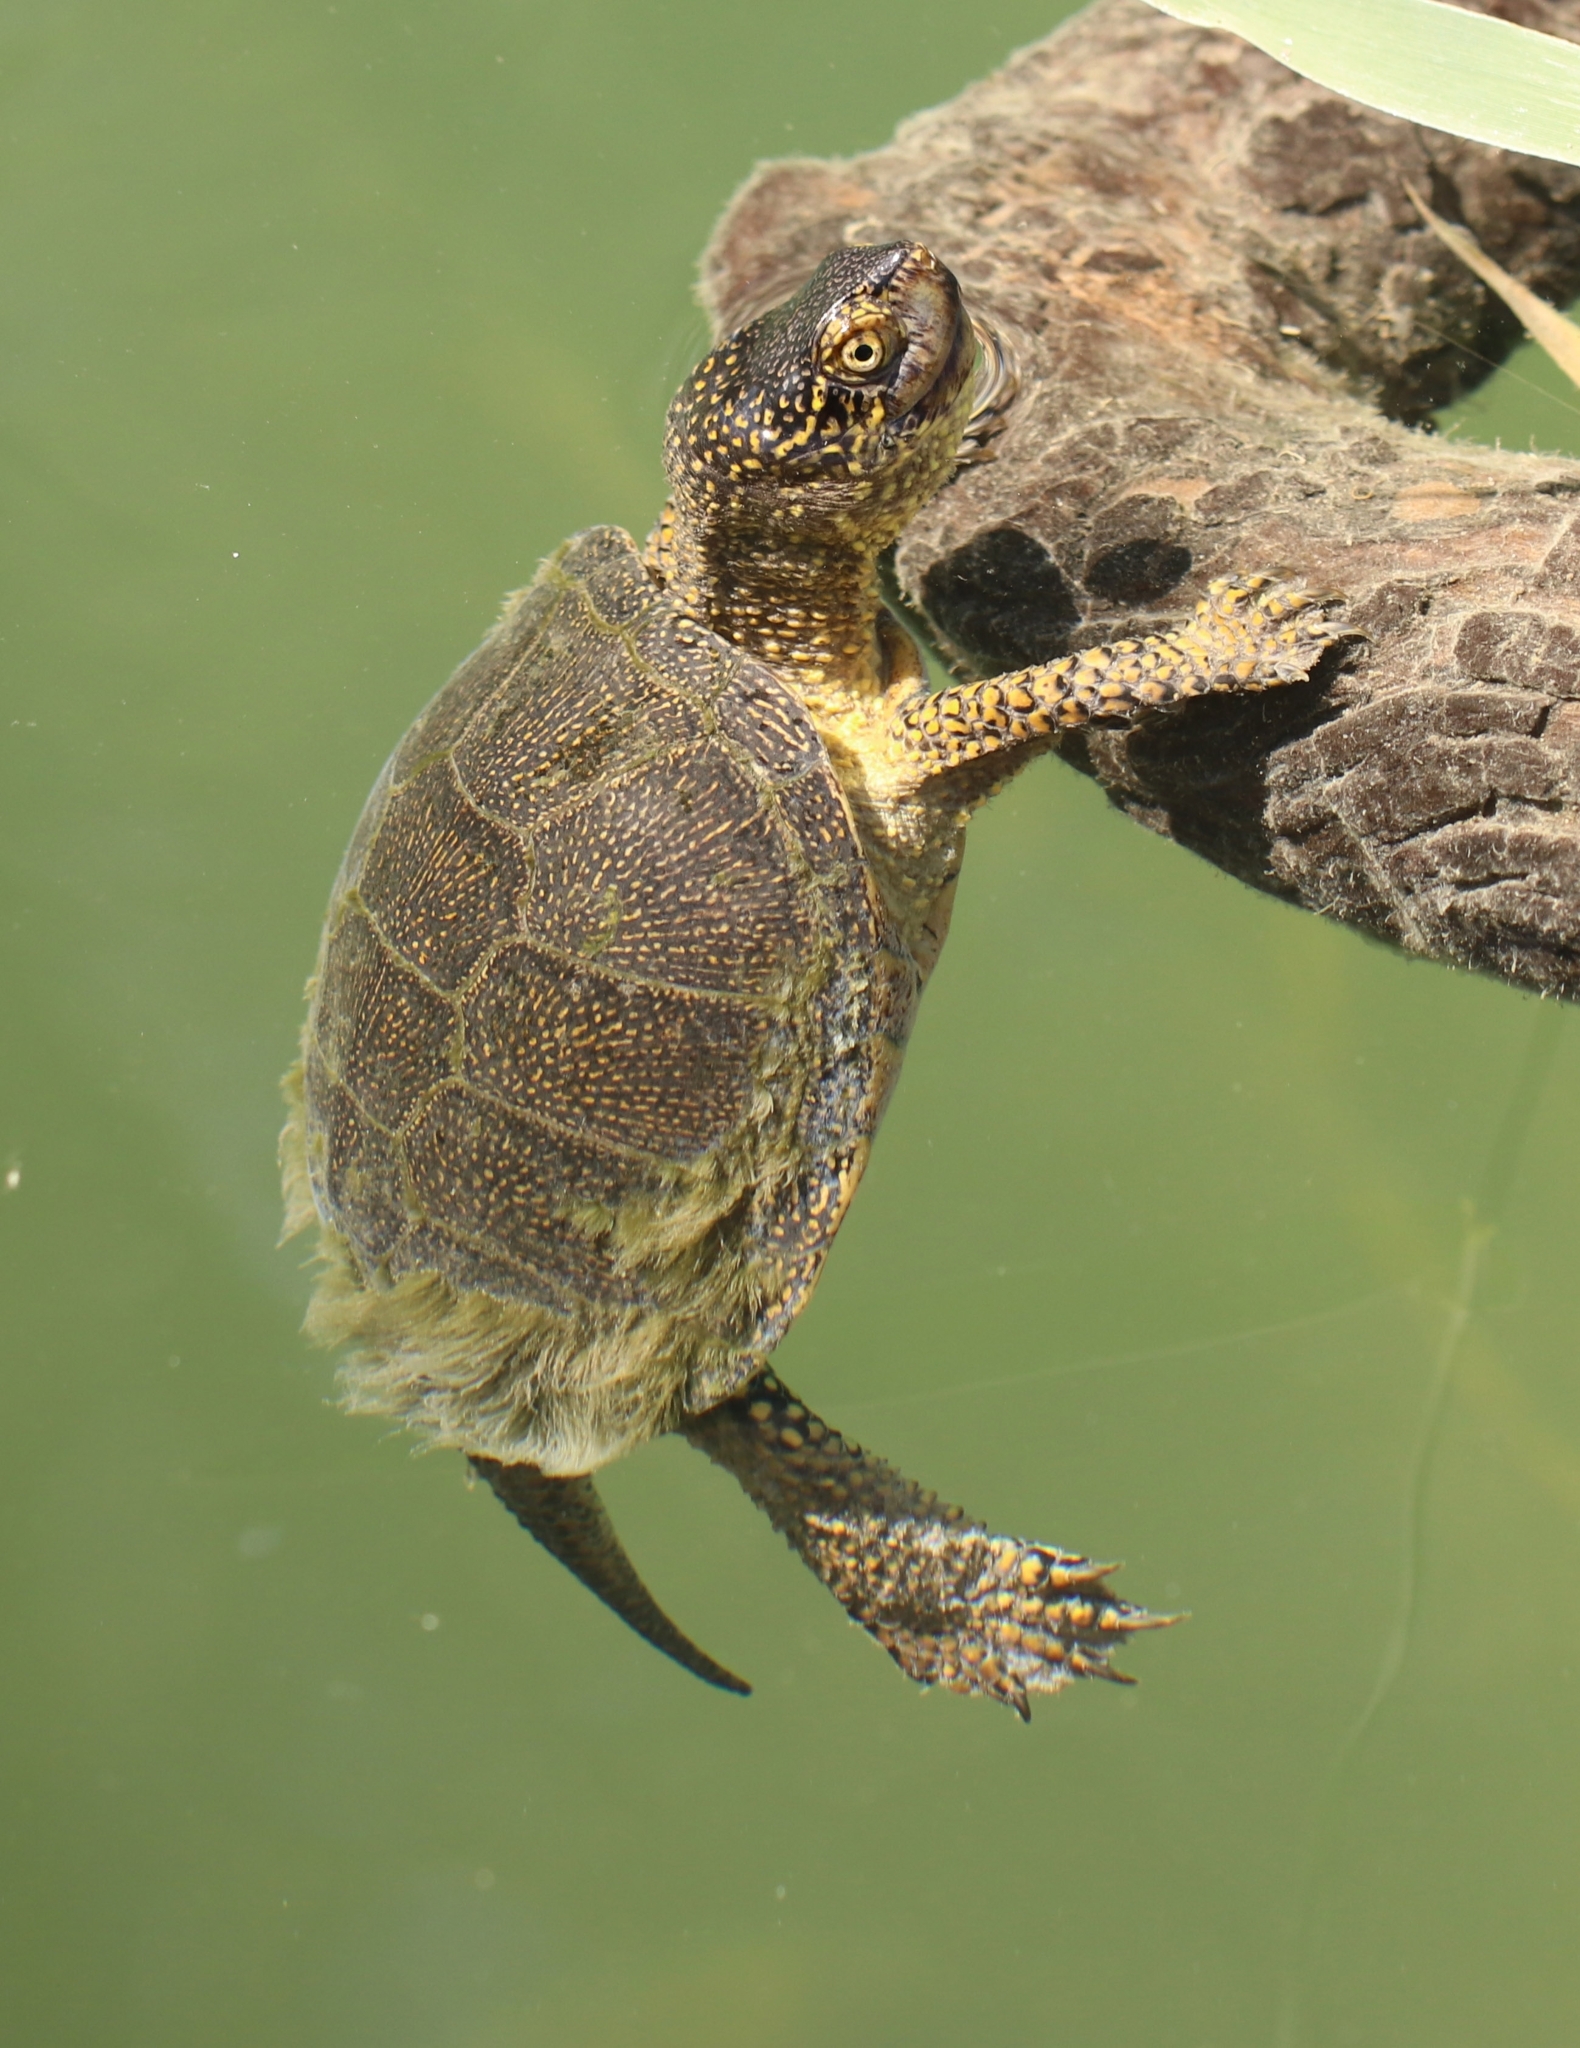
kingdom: Animalia
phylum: Chordata
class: Testudines
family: Emydidae
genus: Emys
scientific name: Emys orbicularis
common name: European pond turtle
